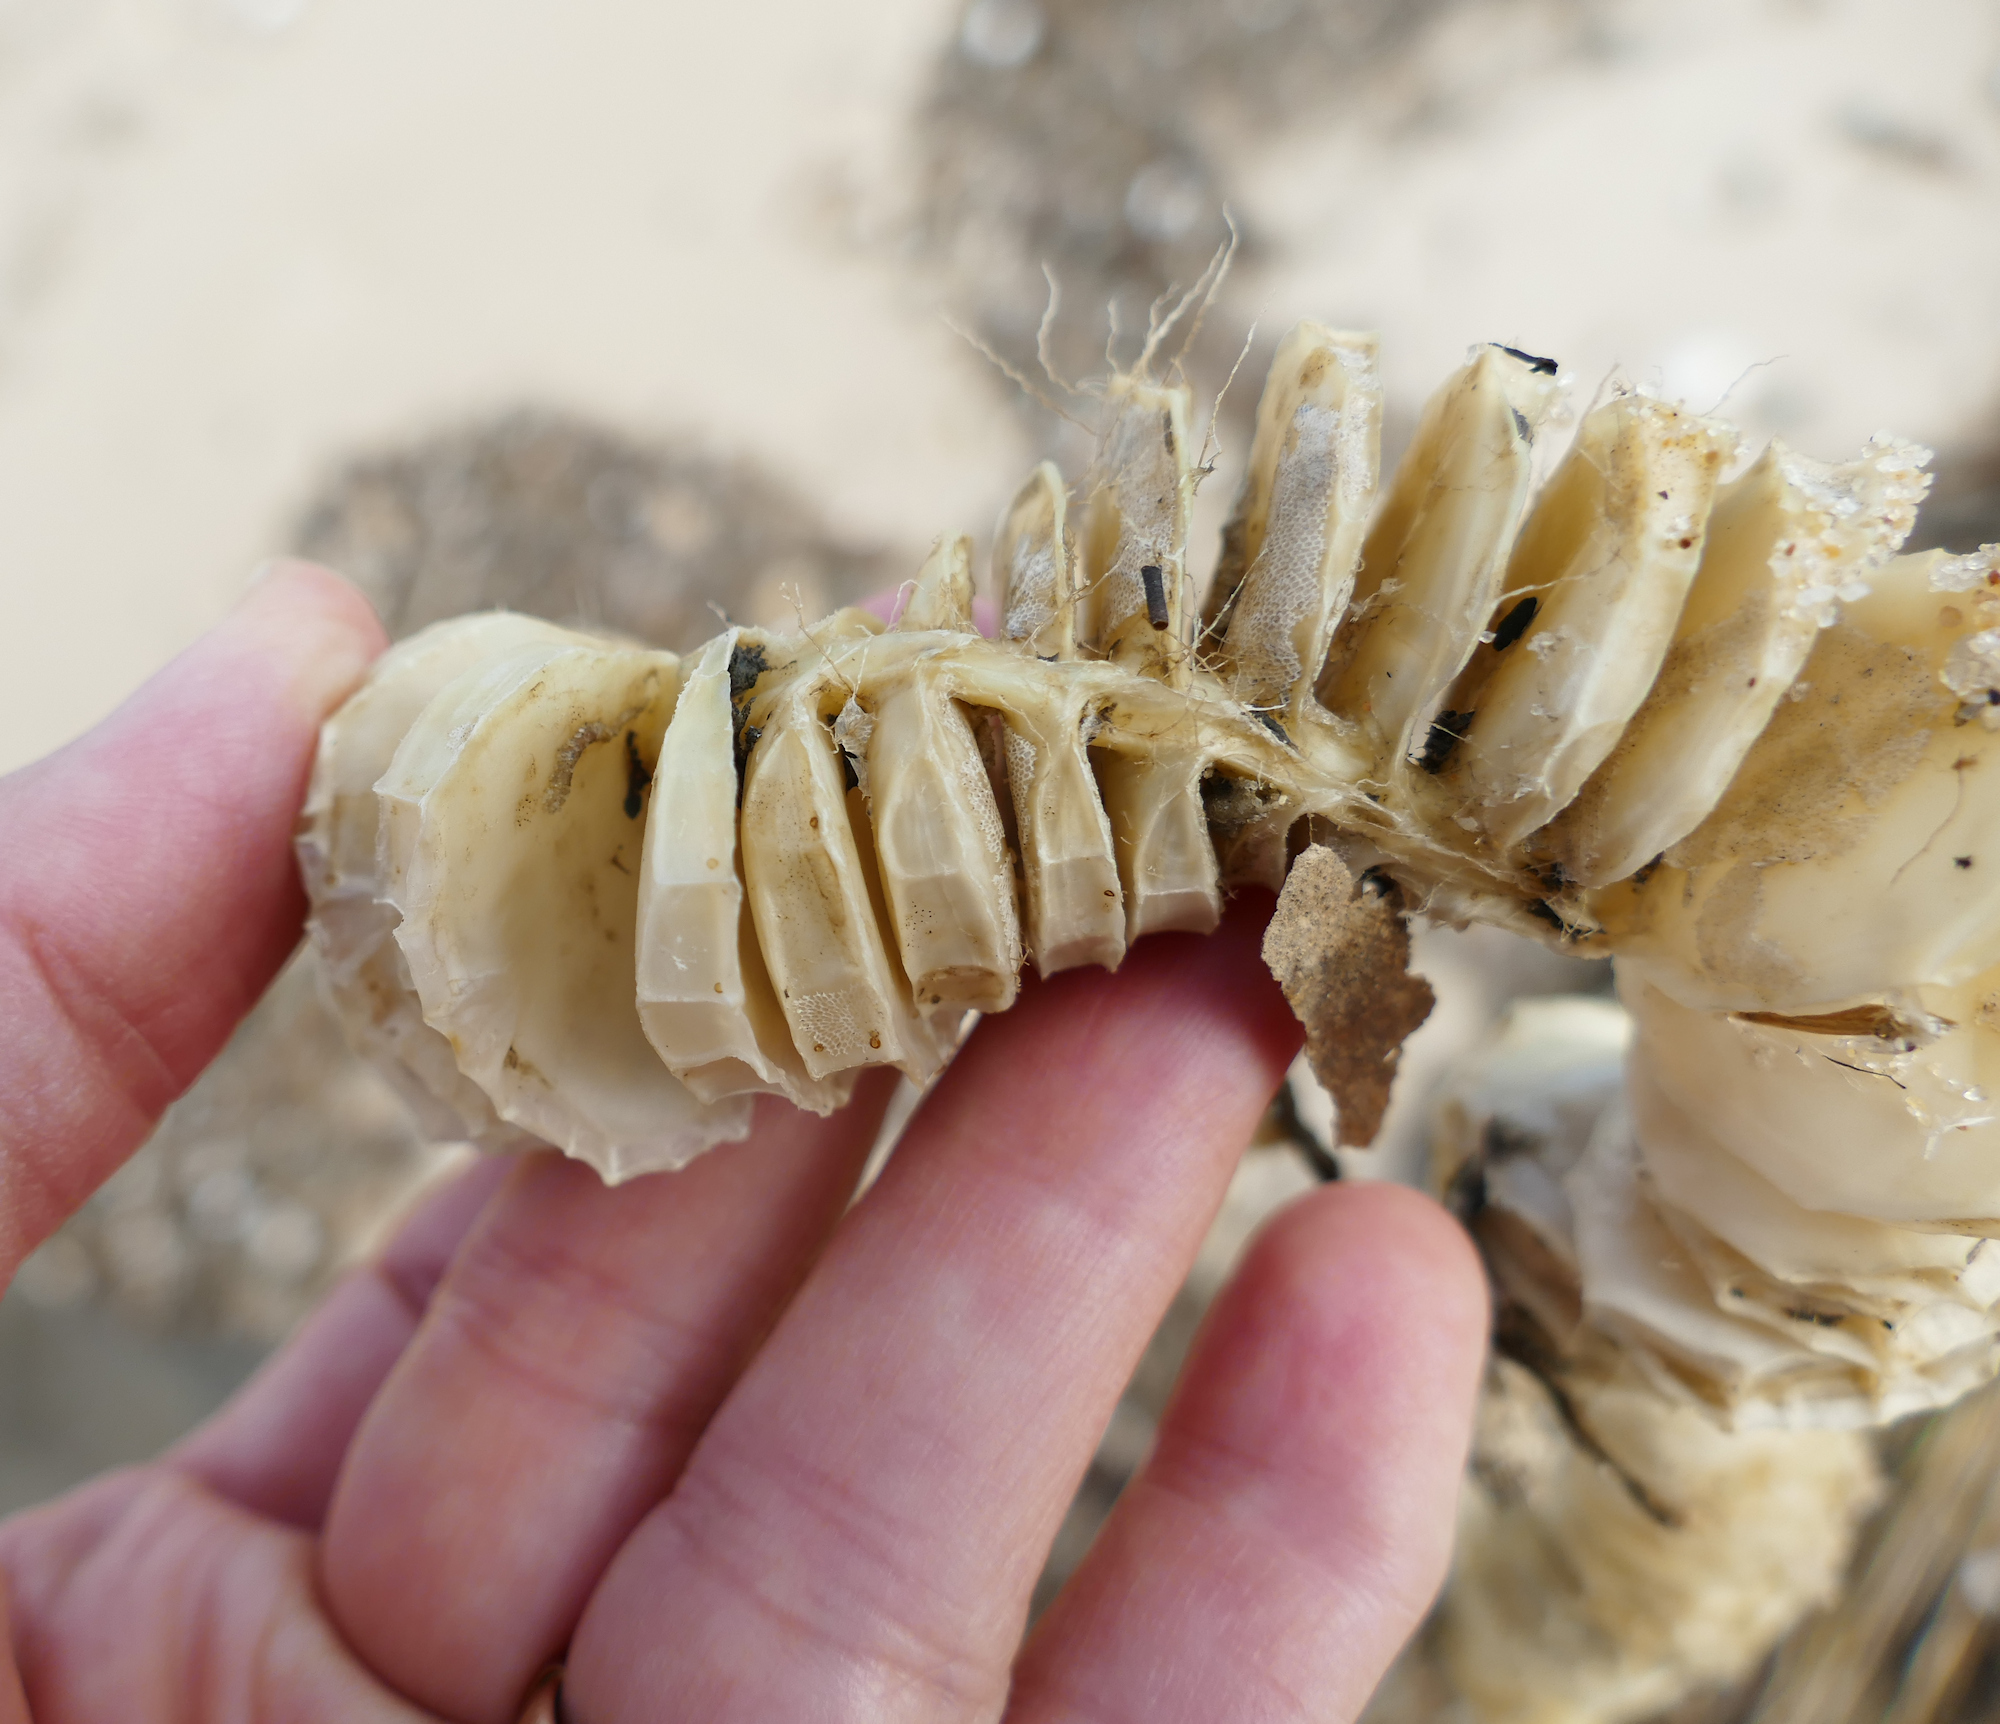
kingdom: Animalia
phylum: Mollusca
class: Gastropoda
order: Neogastropoda
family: Busyconidae
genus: Busycon
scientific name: Busycon carica
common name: Knobbed whelk
